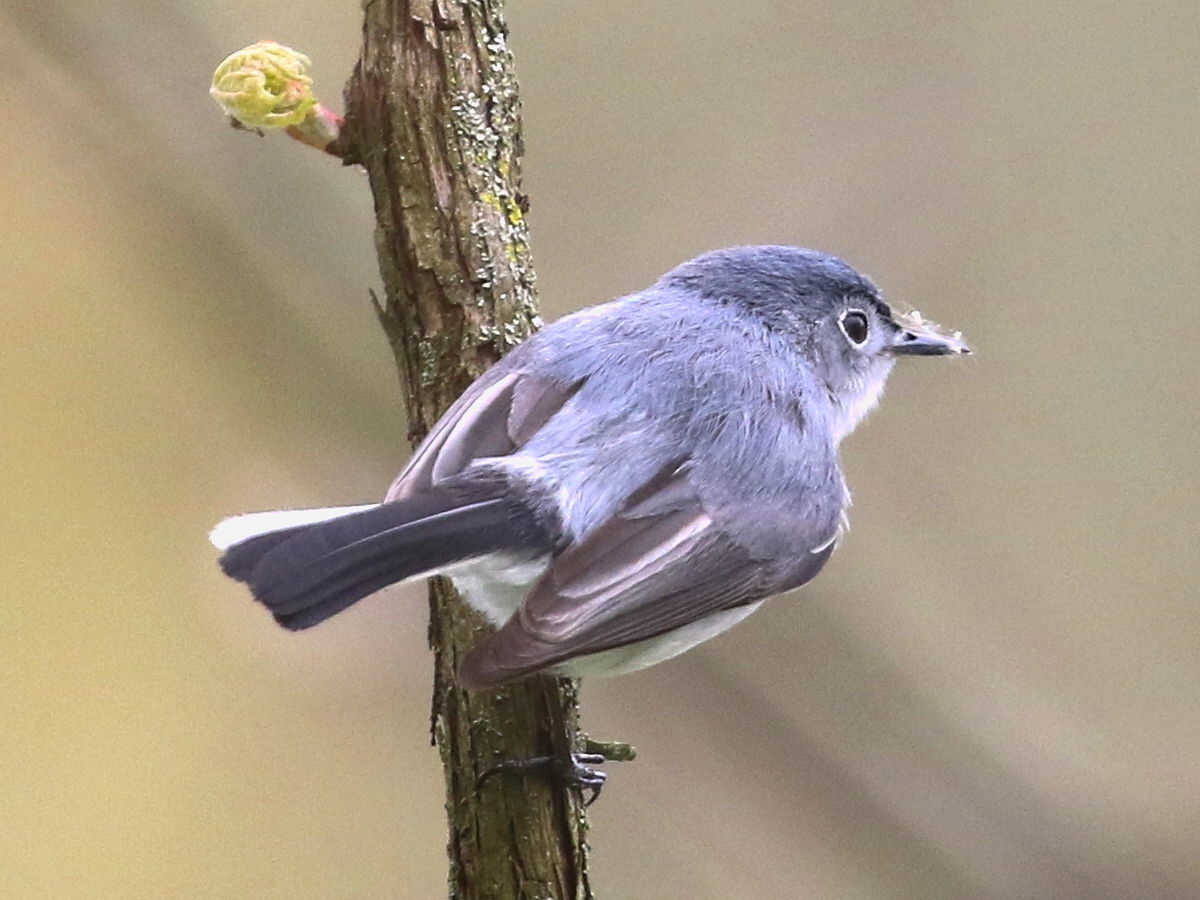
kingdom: Animalia
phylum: Chordata
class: Aves
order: Passeriformes
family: Polioptilidae
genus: Polioptila
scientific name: Polioptila caerulea
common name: Blue-gray gnatcatcher
